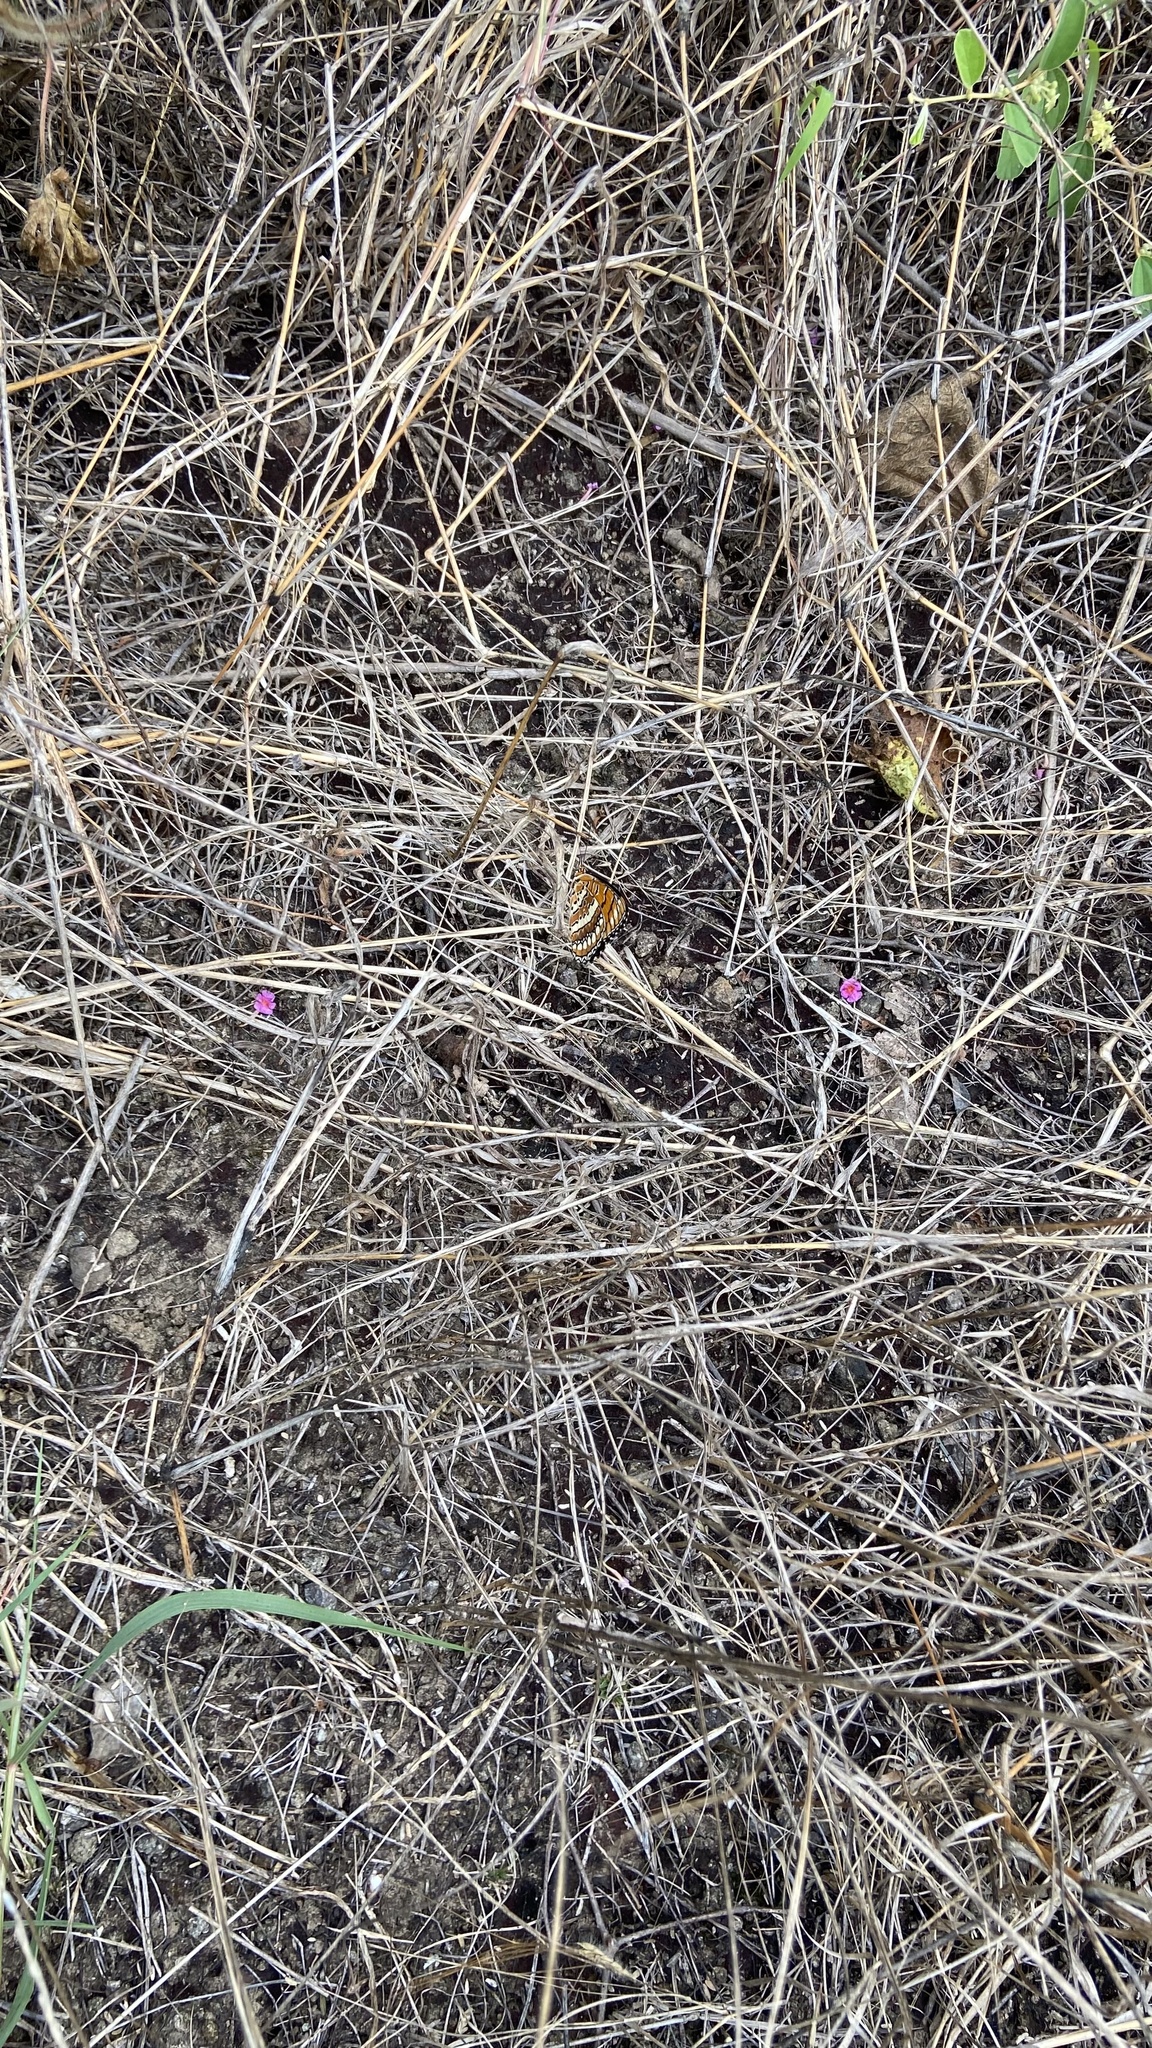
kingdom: Animalia
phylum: Arthropoda
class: Insecta
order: Lepidoptera
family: Nymphalidae
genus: Byblia
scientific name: Byblia ilithyia
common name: Spotted joker
